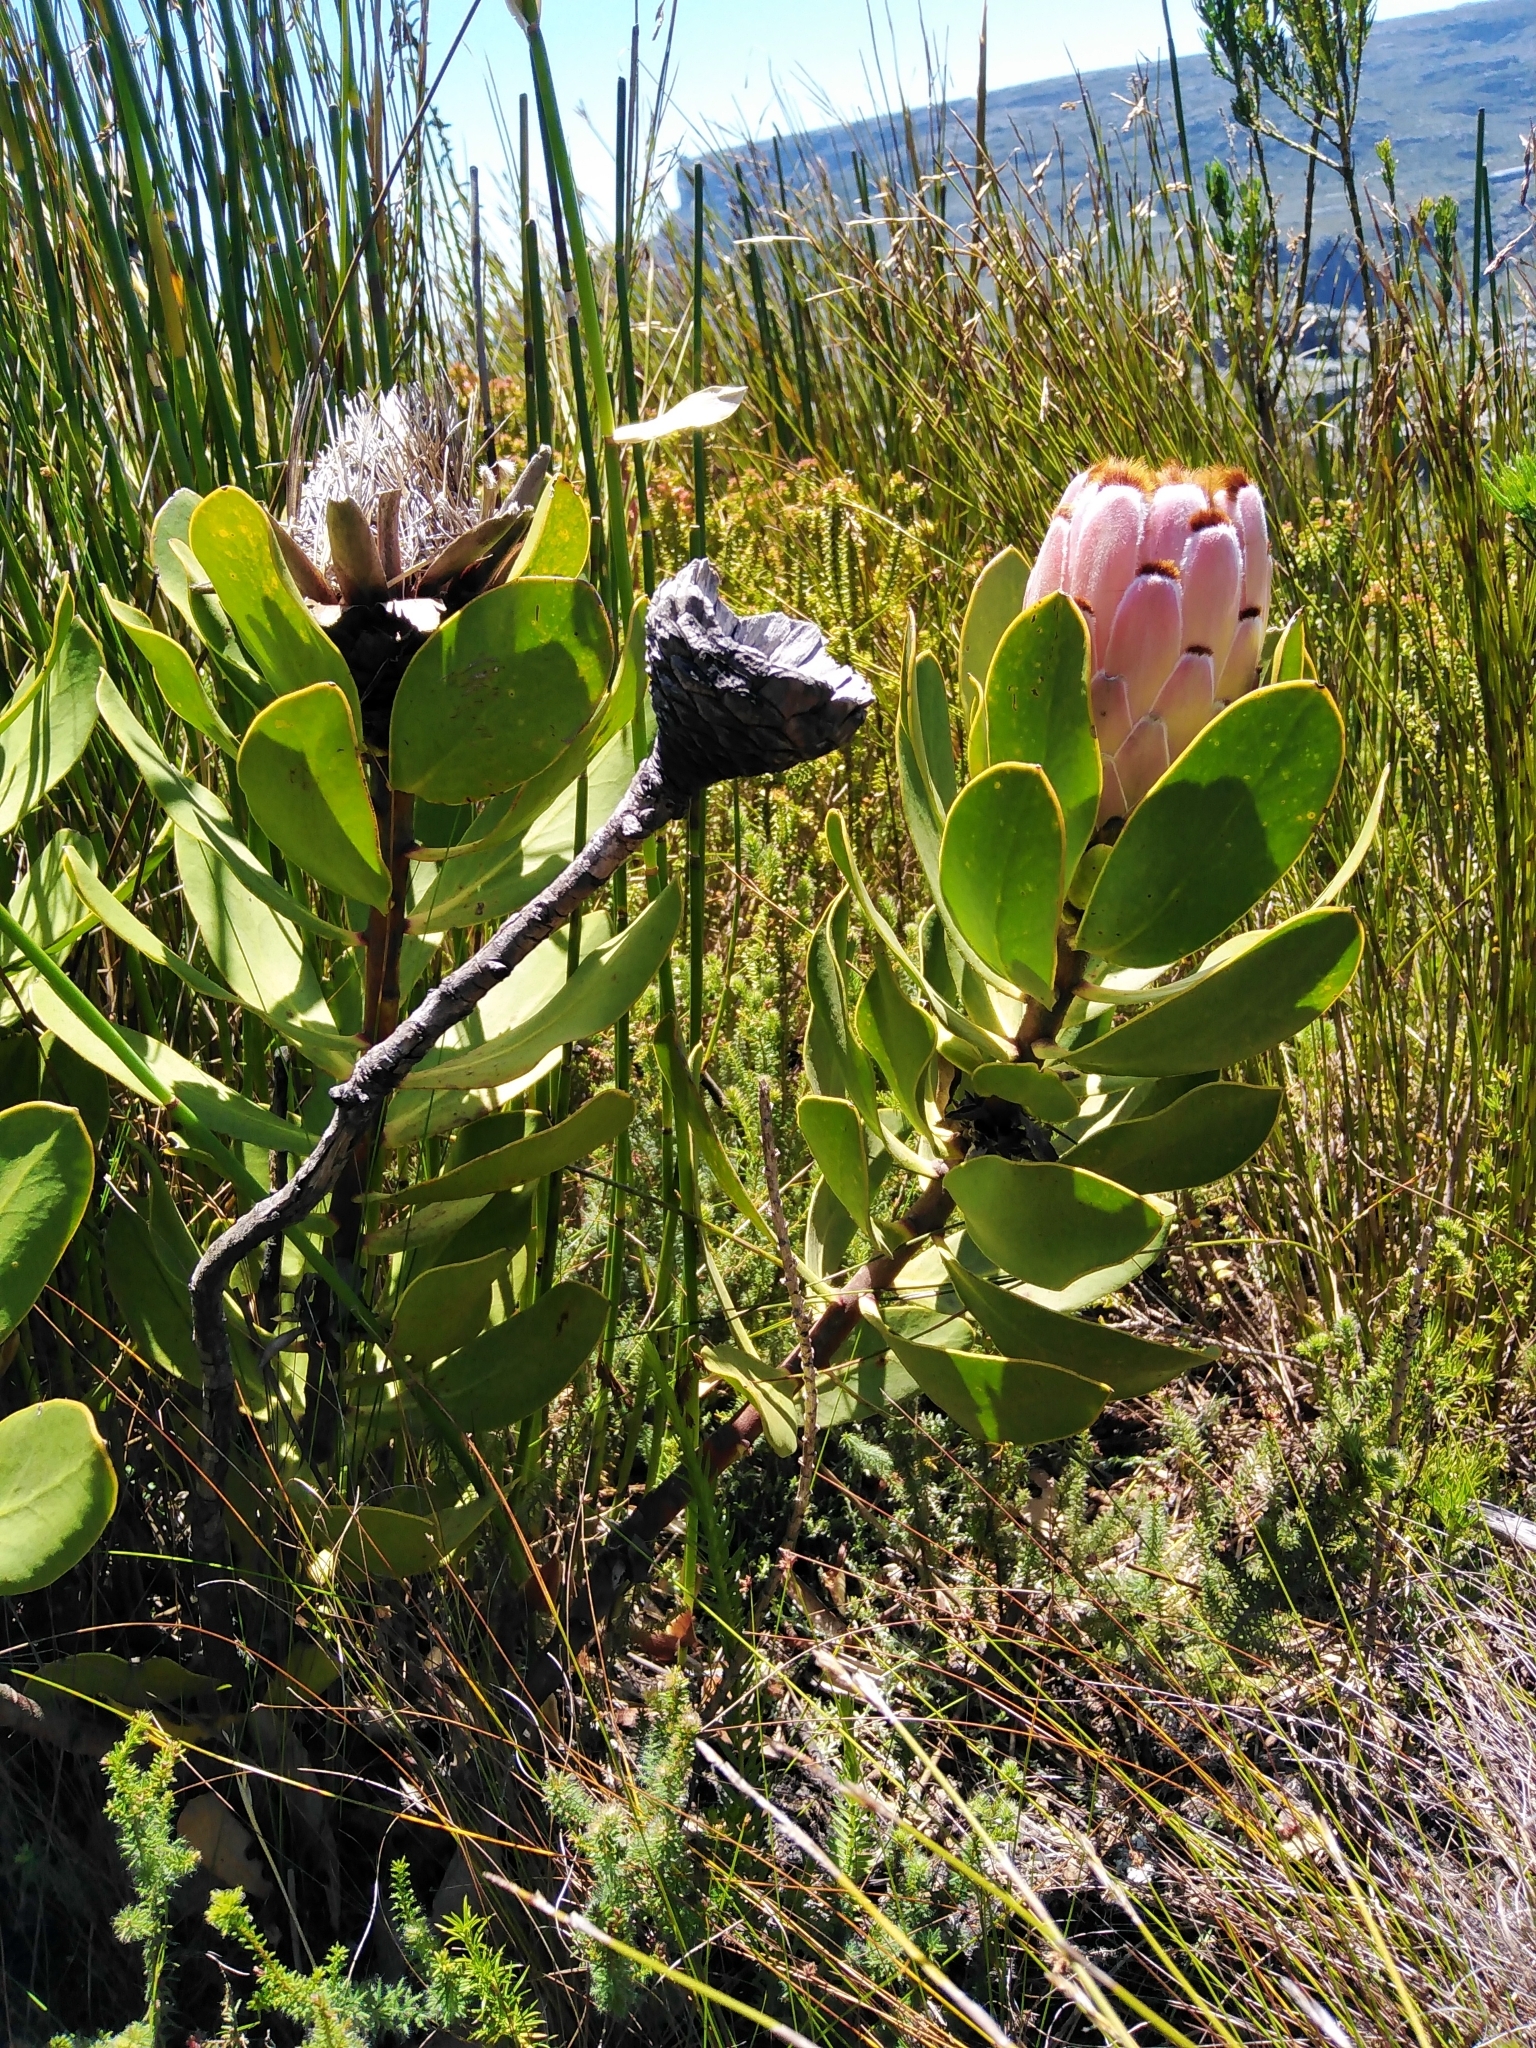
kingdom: Plantae
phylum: Tracheophyta
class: Magnoliopsida
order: Proteales
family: Proteaceae
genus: Protea
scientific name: Protea speciosa
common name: Brown-beard sugarbush
